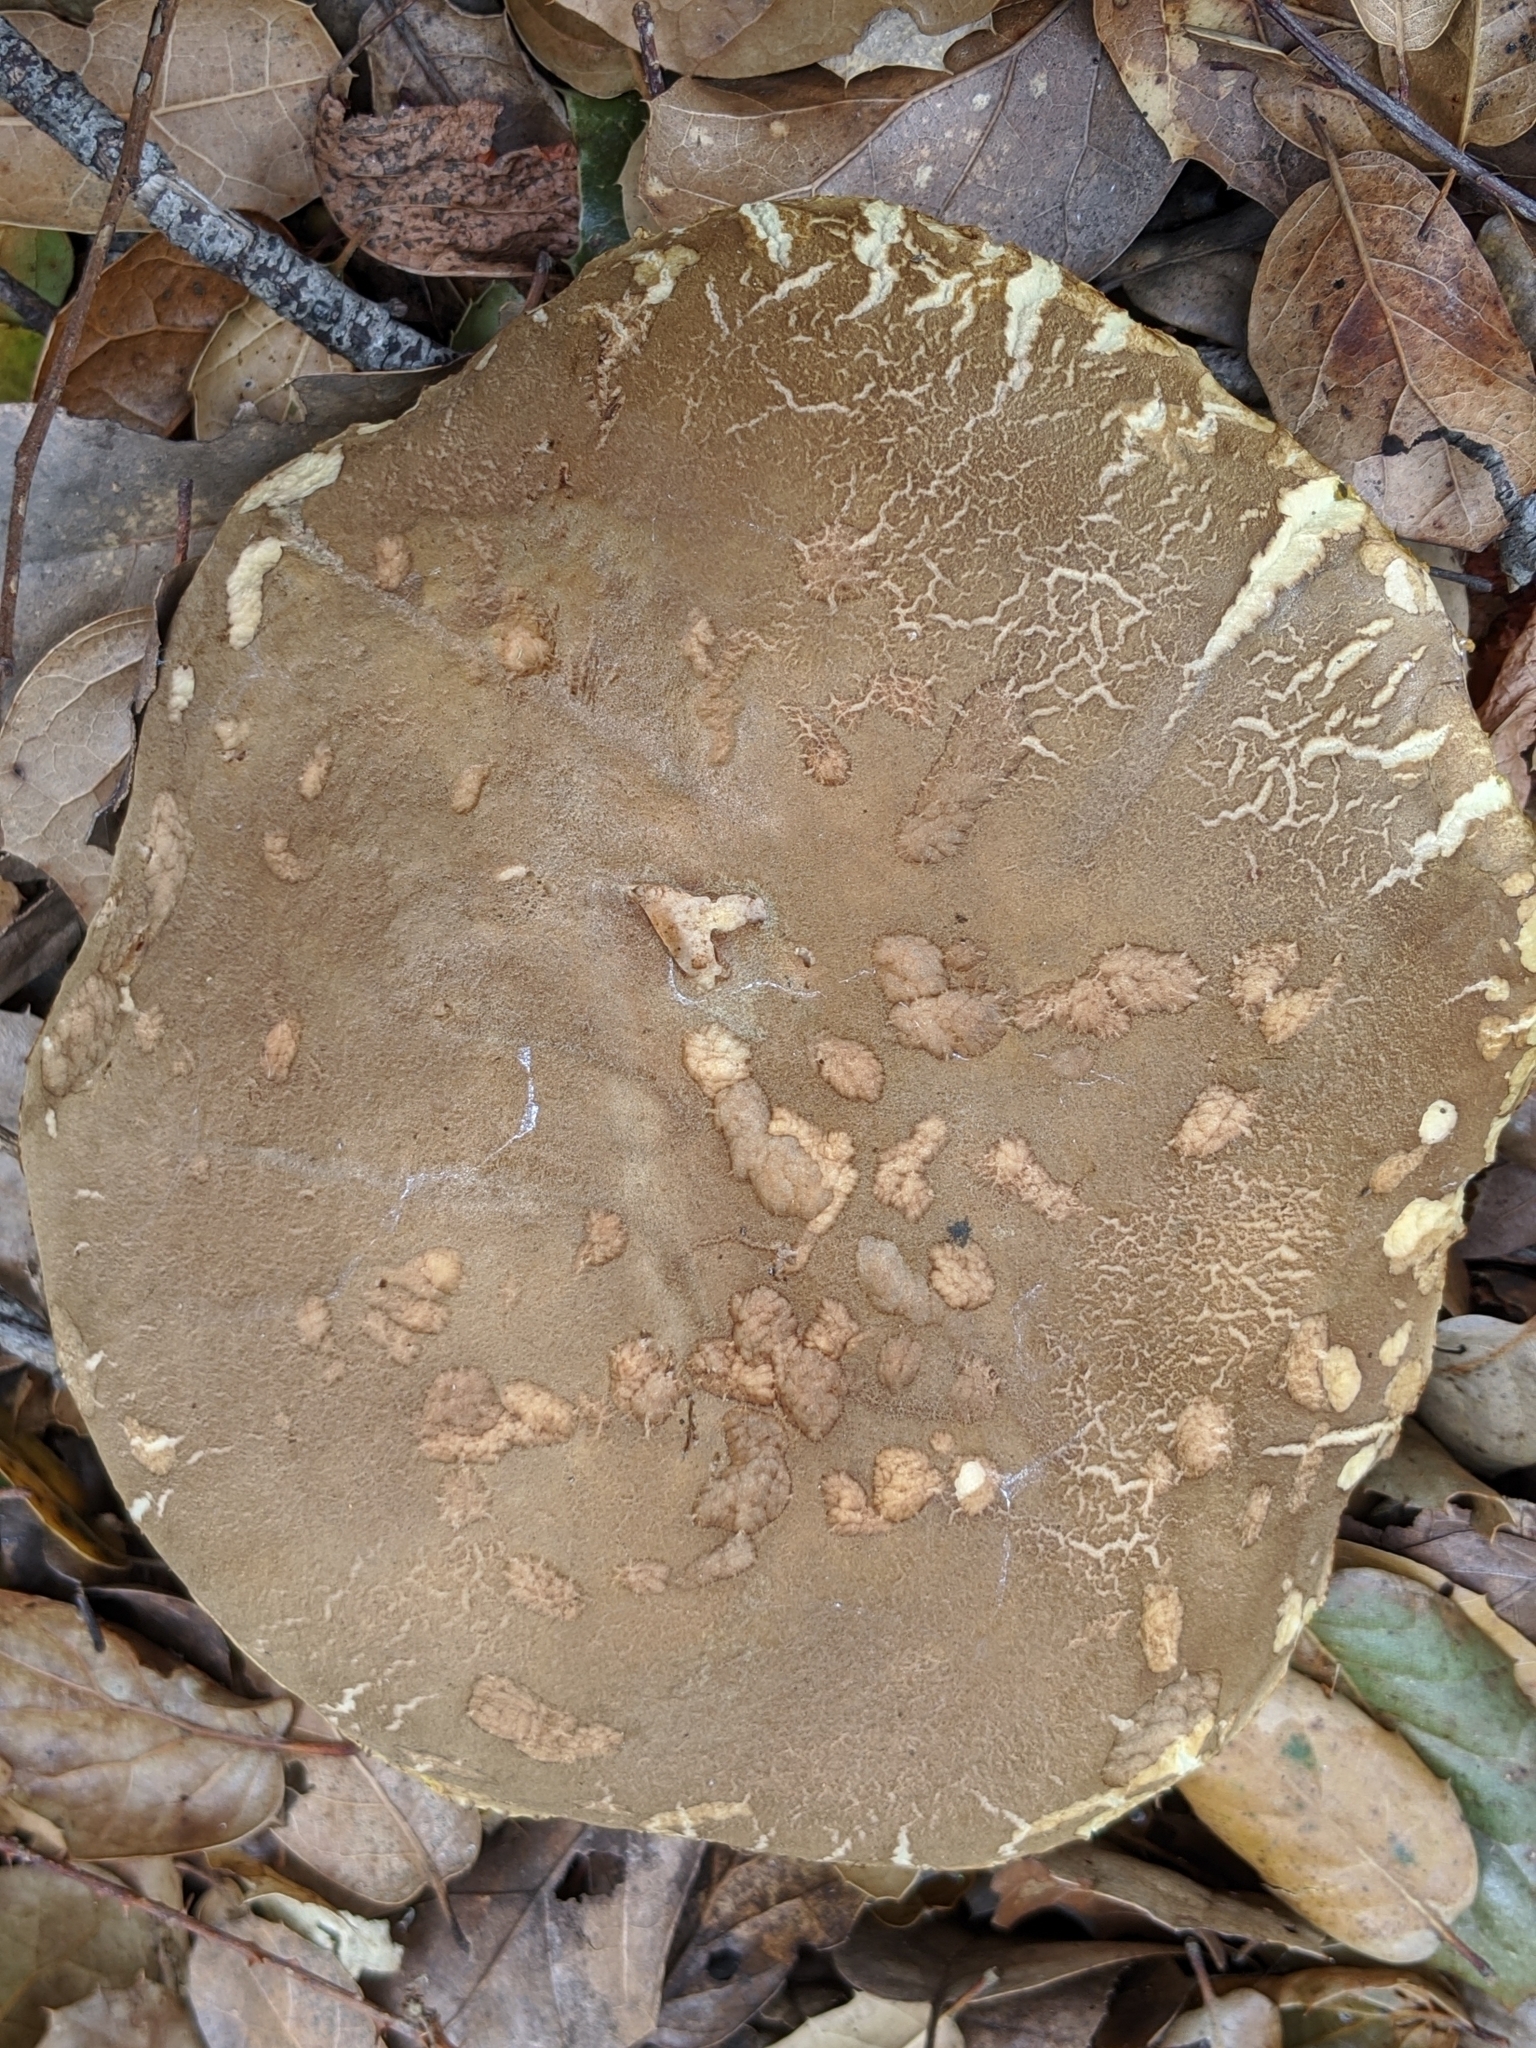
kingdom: Fungi
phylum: Basidiomycota
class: Agaricomycetes
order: Boletales
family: Boletaceae
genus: Xerocomus
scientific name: Xerocomus subtomentosus
